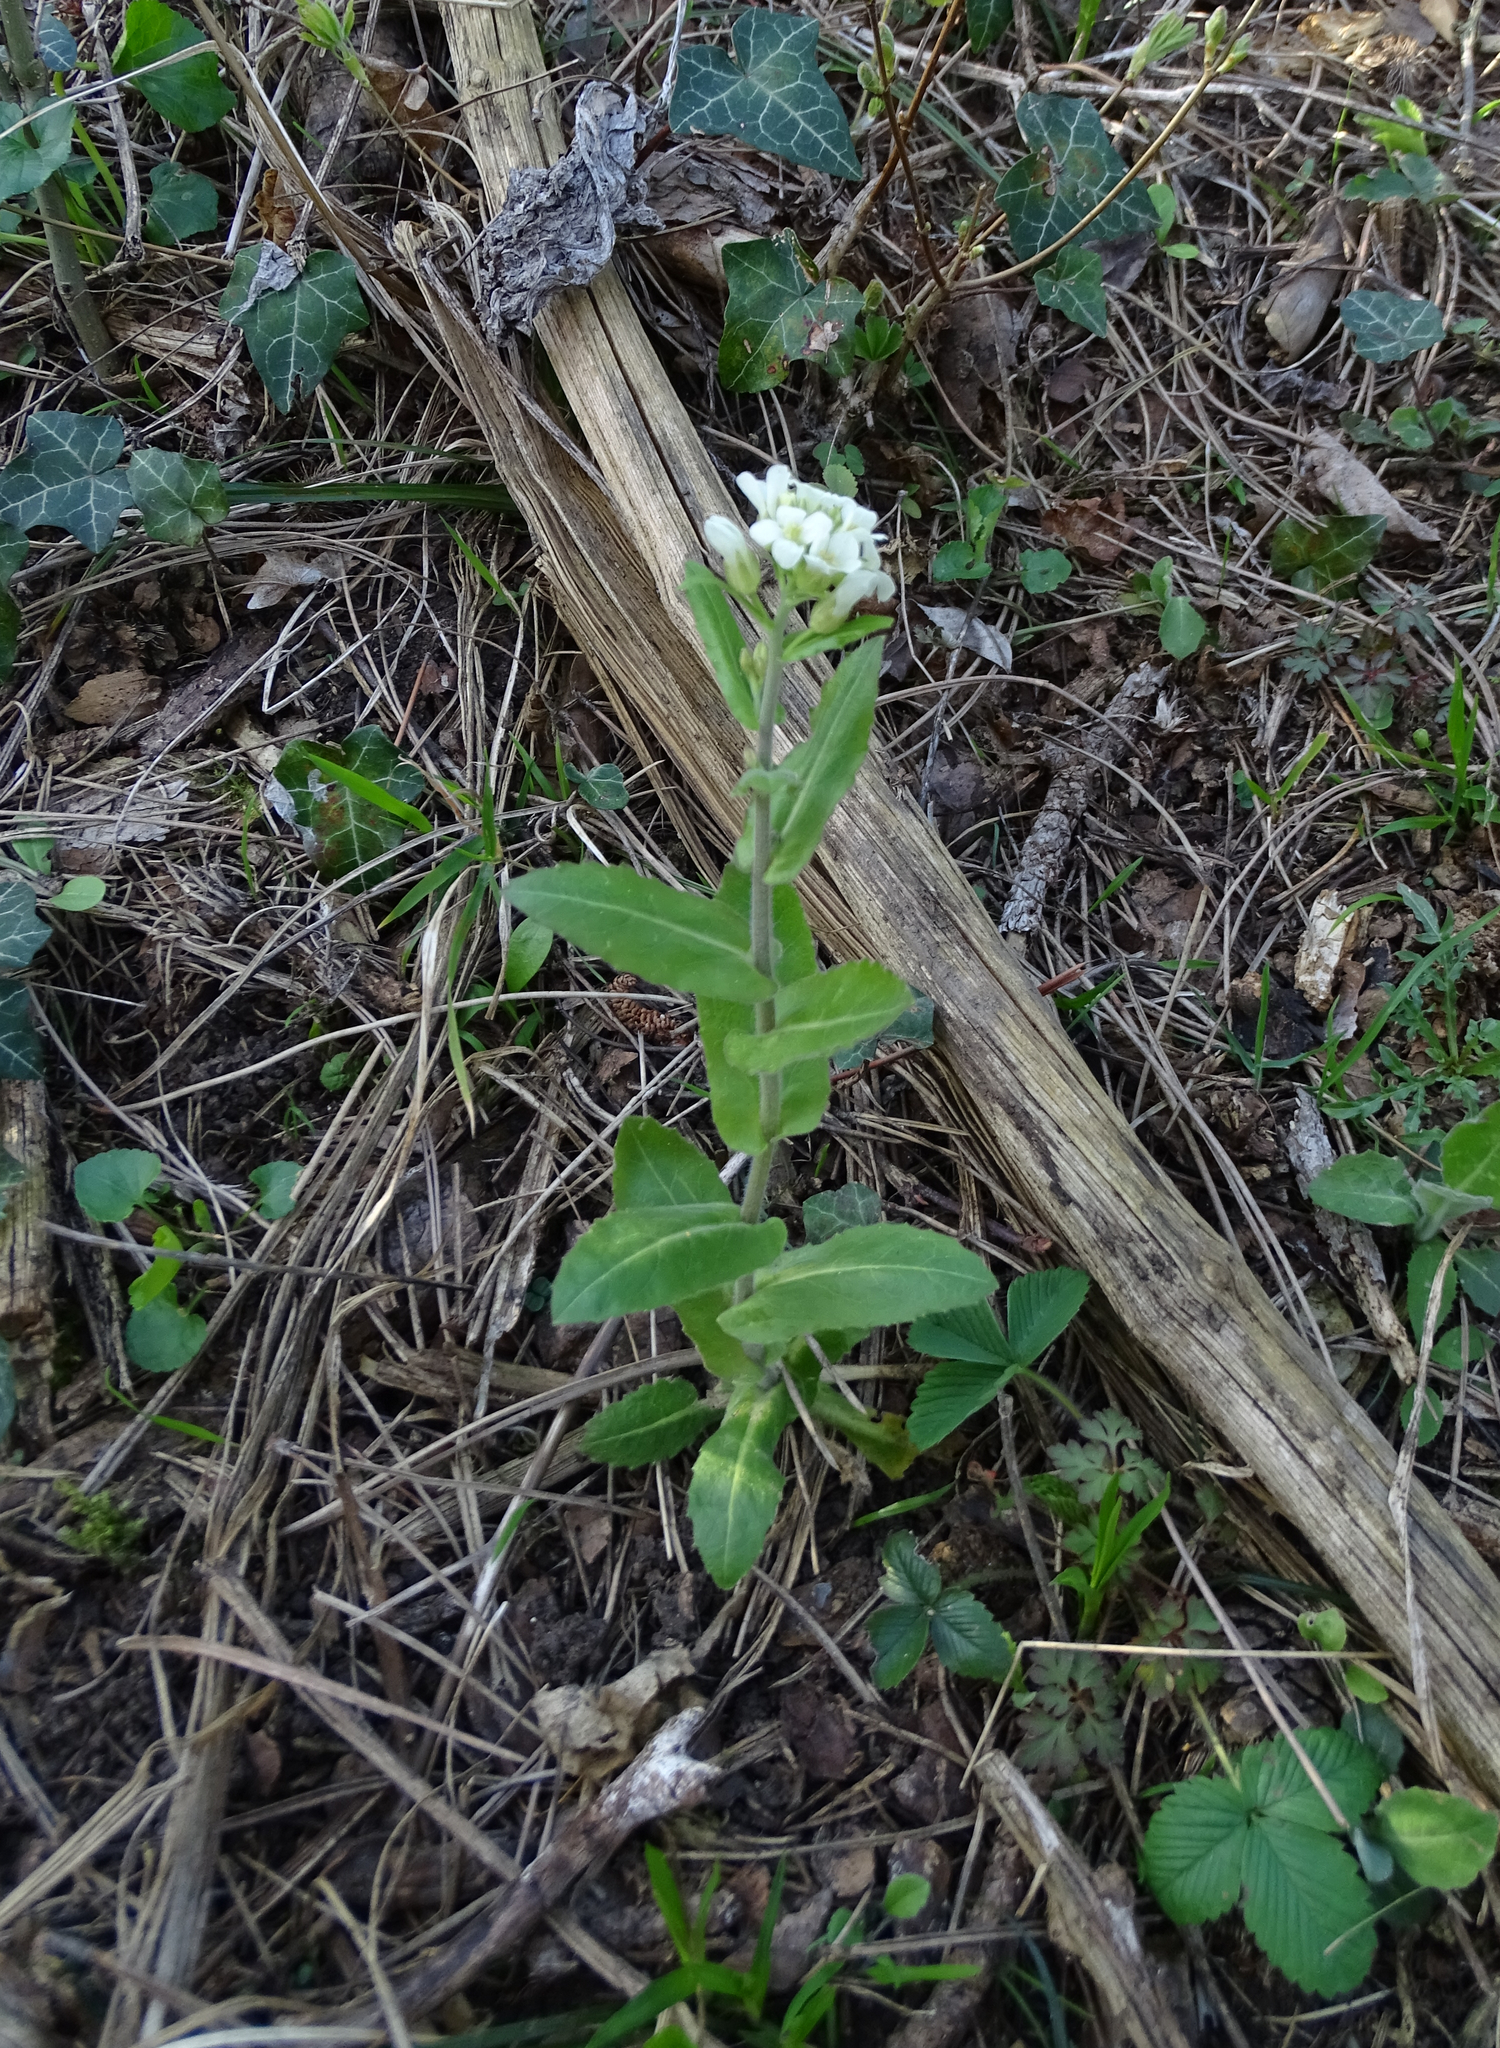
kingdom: Plantae
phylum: Tracheophyta
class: Magnoliopsida
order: Brassicales
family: Brassicaceae
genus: Pseudoturritis
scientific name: Pseudoturritis turrita
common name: Tower cress
